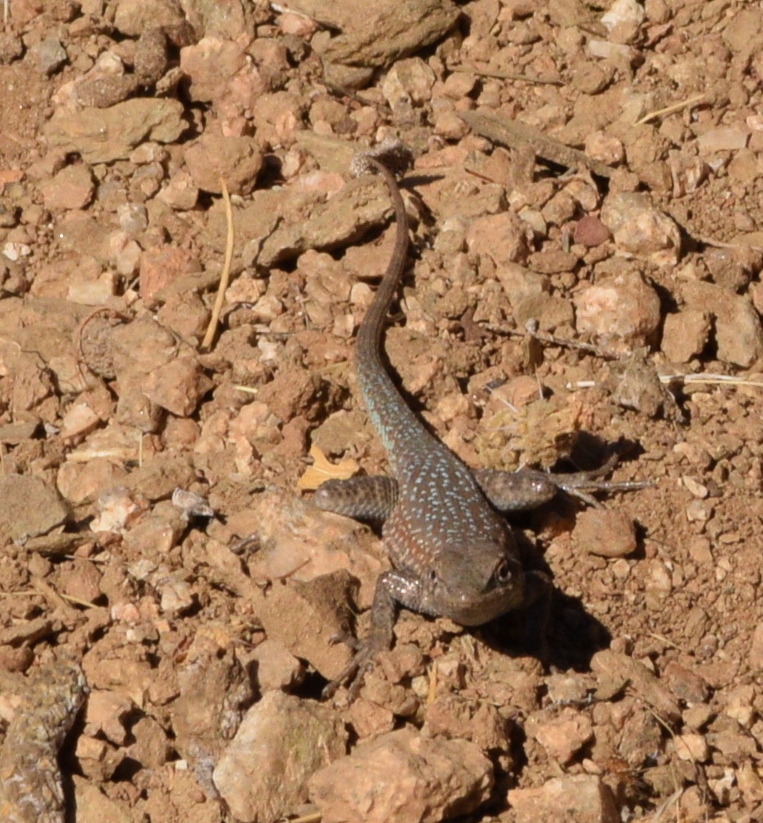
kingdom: Animalia
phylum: Chordata
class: Squamata
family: Phrynosomatidae
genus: Uta
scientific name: Uta stansburiana
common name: Side-blotched lizard
